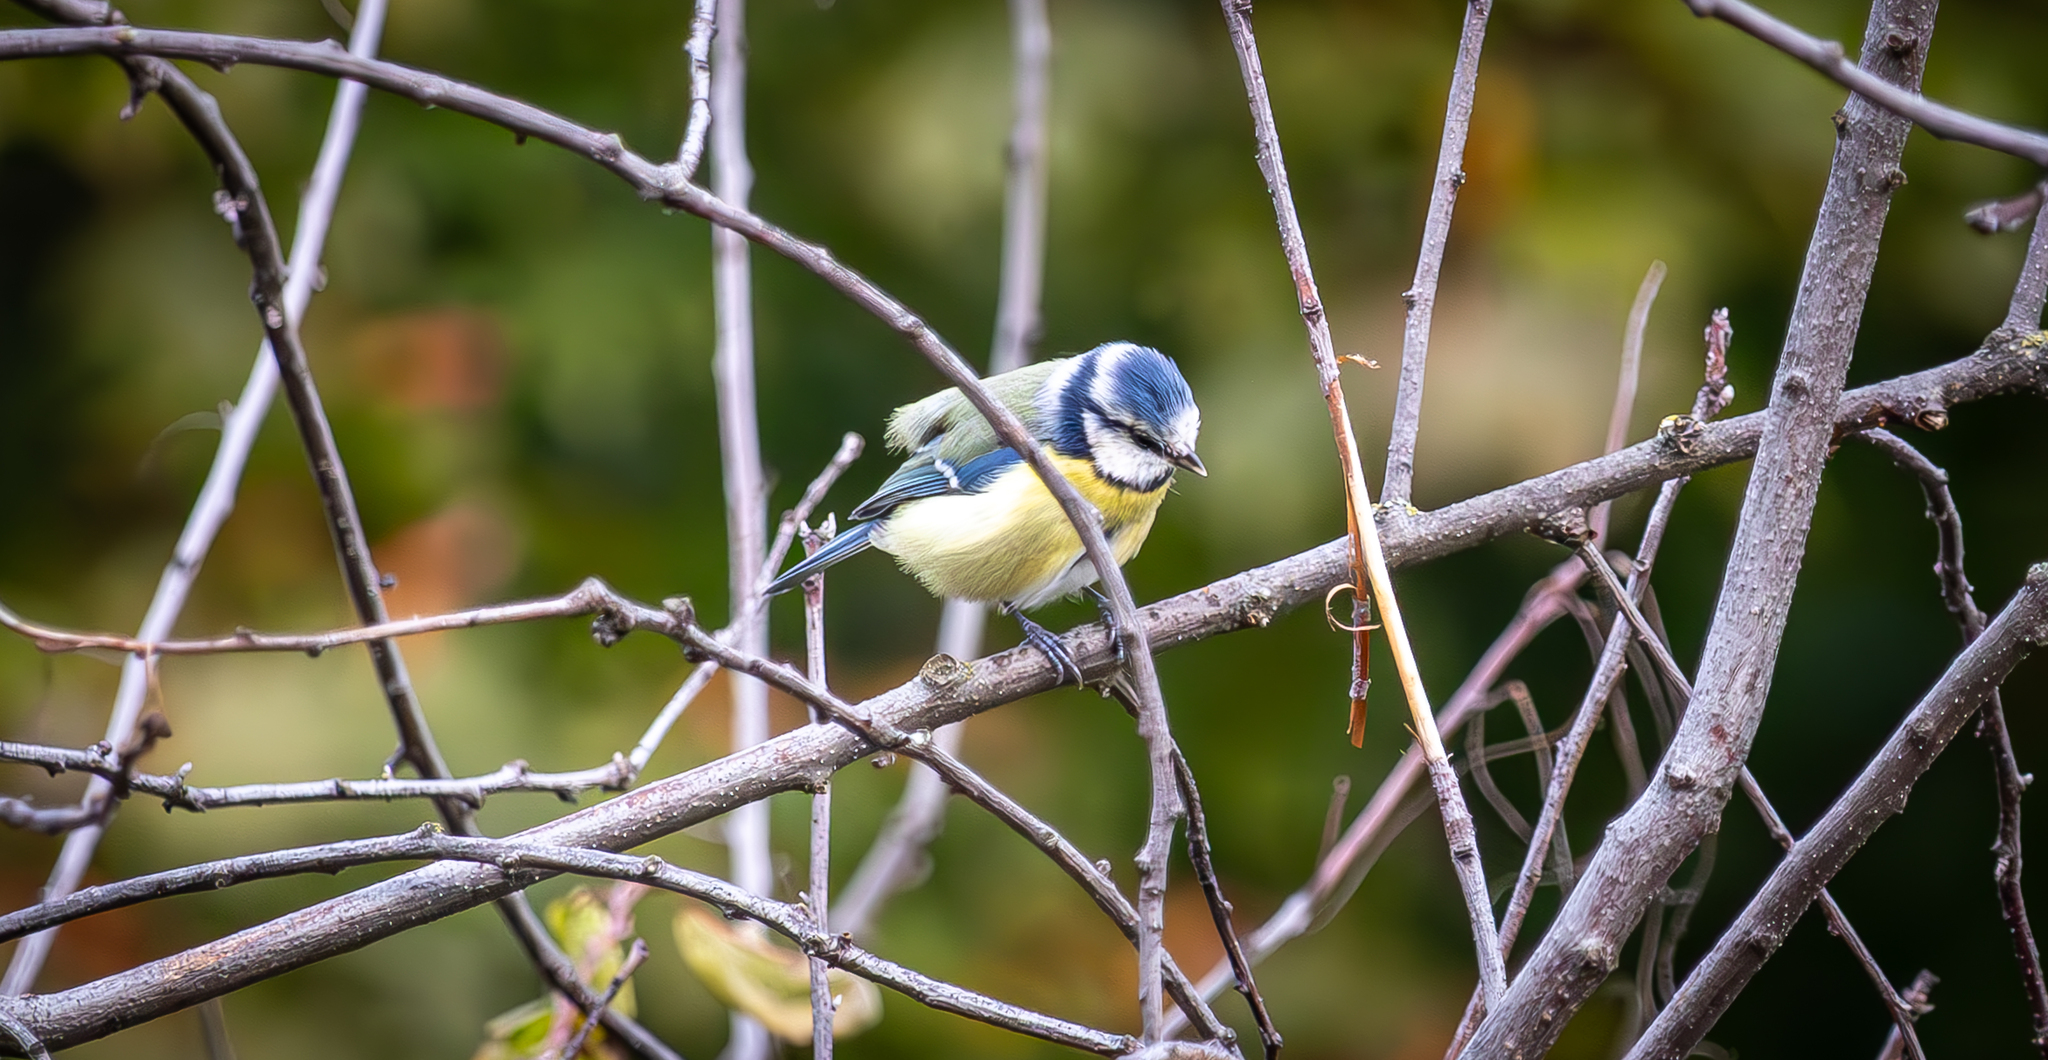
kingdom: Animalia
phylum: Chordata
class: Aves
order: Passeriformes
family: Paridae
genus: Cyanistes
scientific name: Cyanistes caeruleus
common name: Eurasian blue tit
